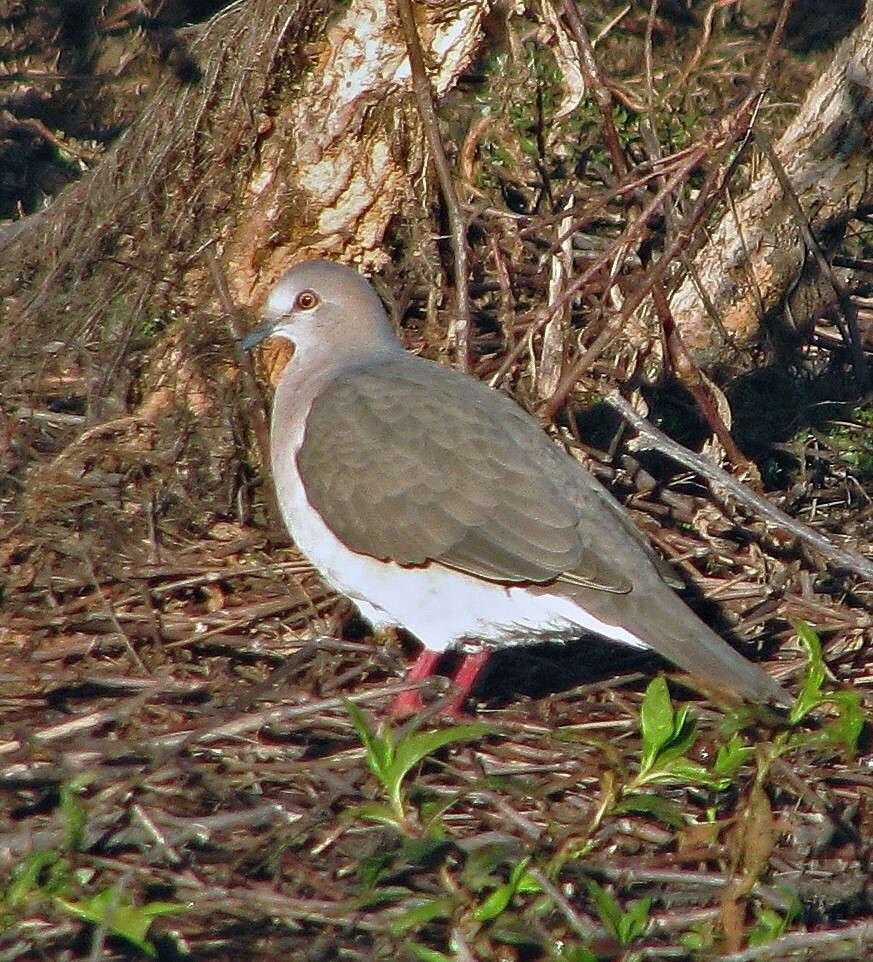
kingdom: Animalia
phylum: Chordata
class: Aves
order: Columbiformes
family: Columbidae
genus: Leptotila
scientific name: Leptotila verreauxi
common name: White-tipped dove
